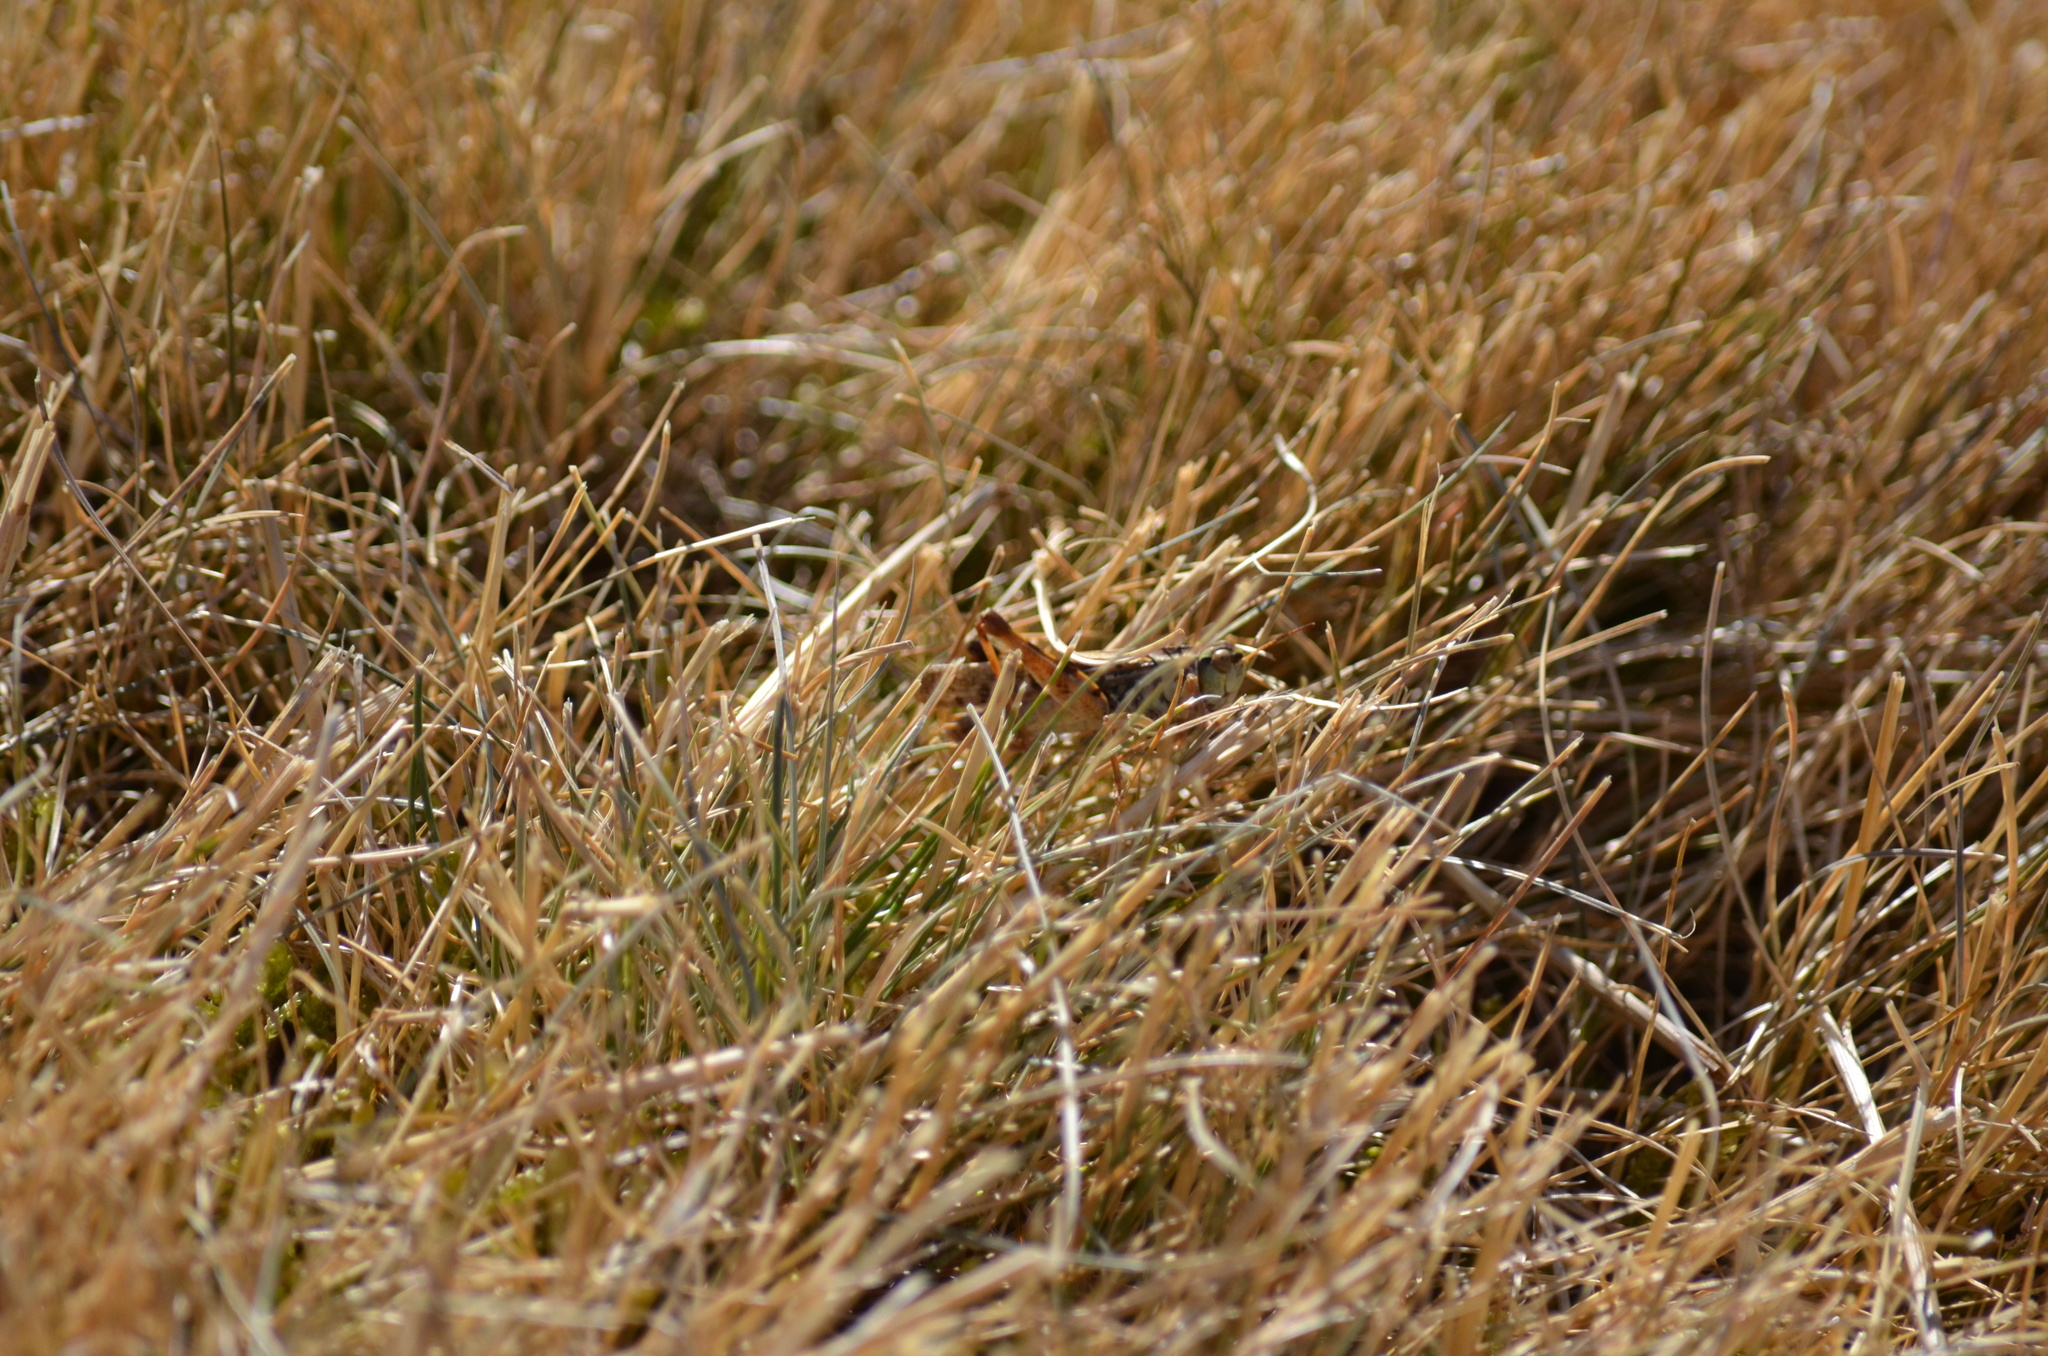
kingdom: Animalia
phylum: Arthropoda
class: Insecta
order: Orthoptera
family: Acrididae
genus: Camnula
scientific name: Camnula pellucida
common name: Clear-winged grasshopper
